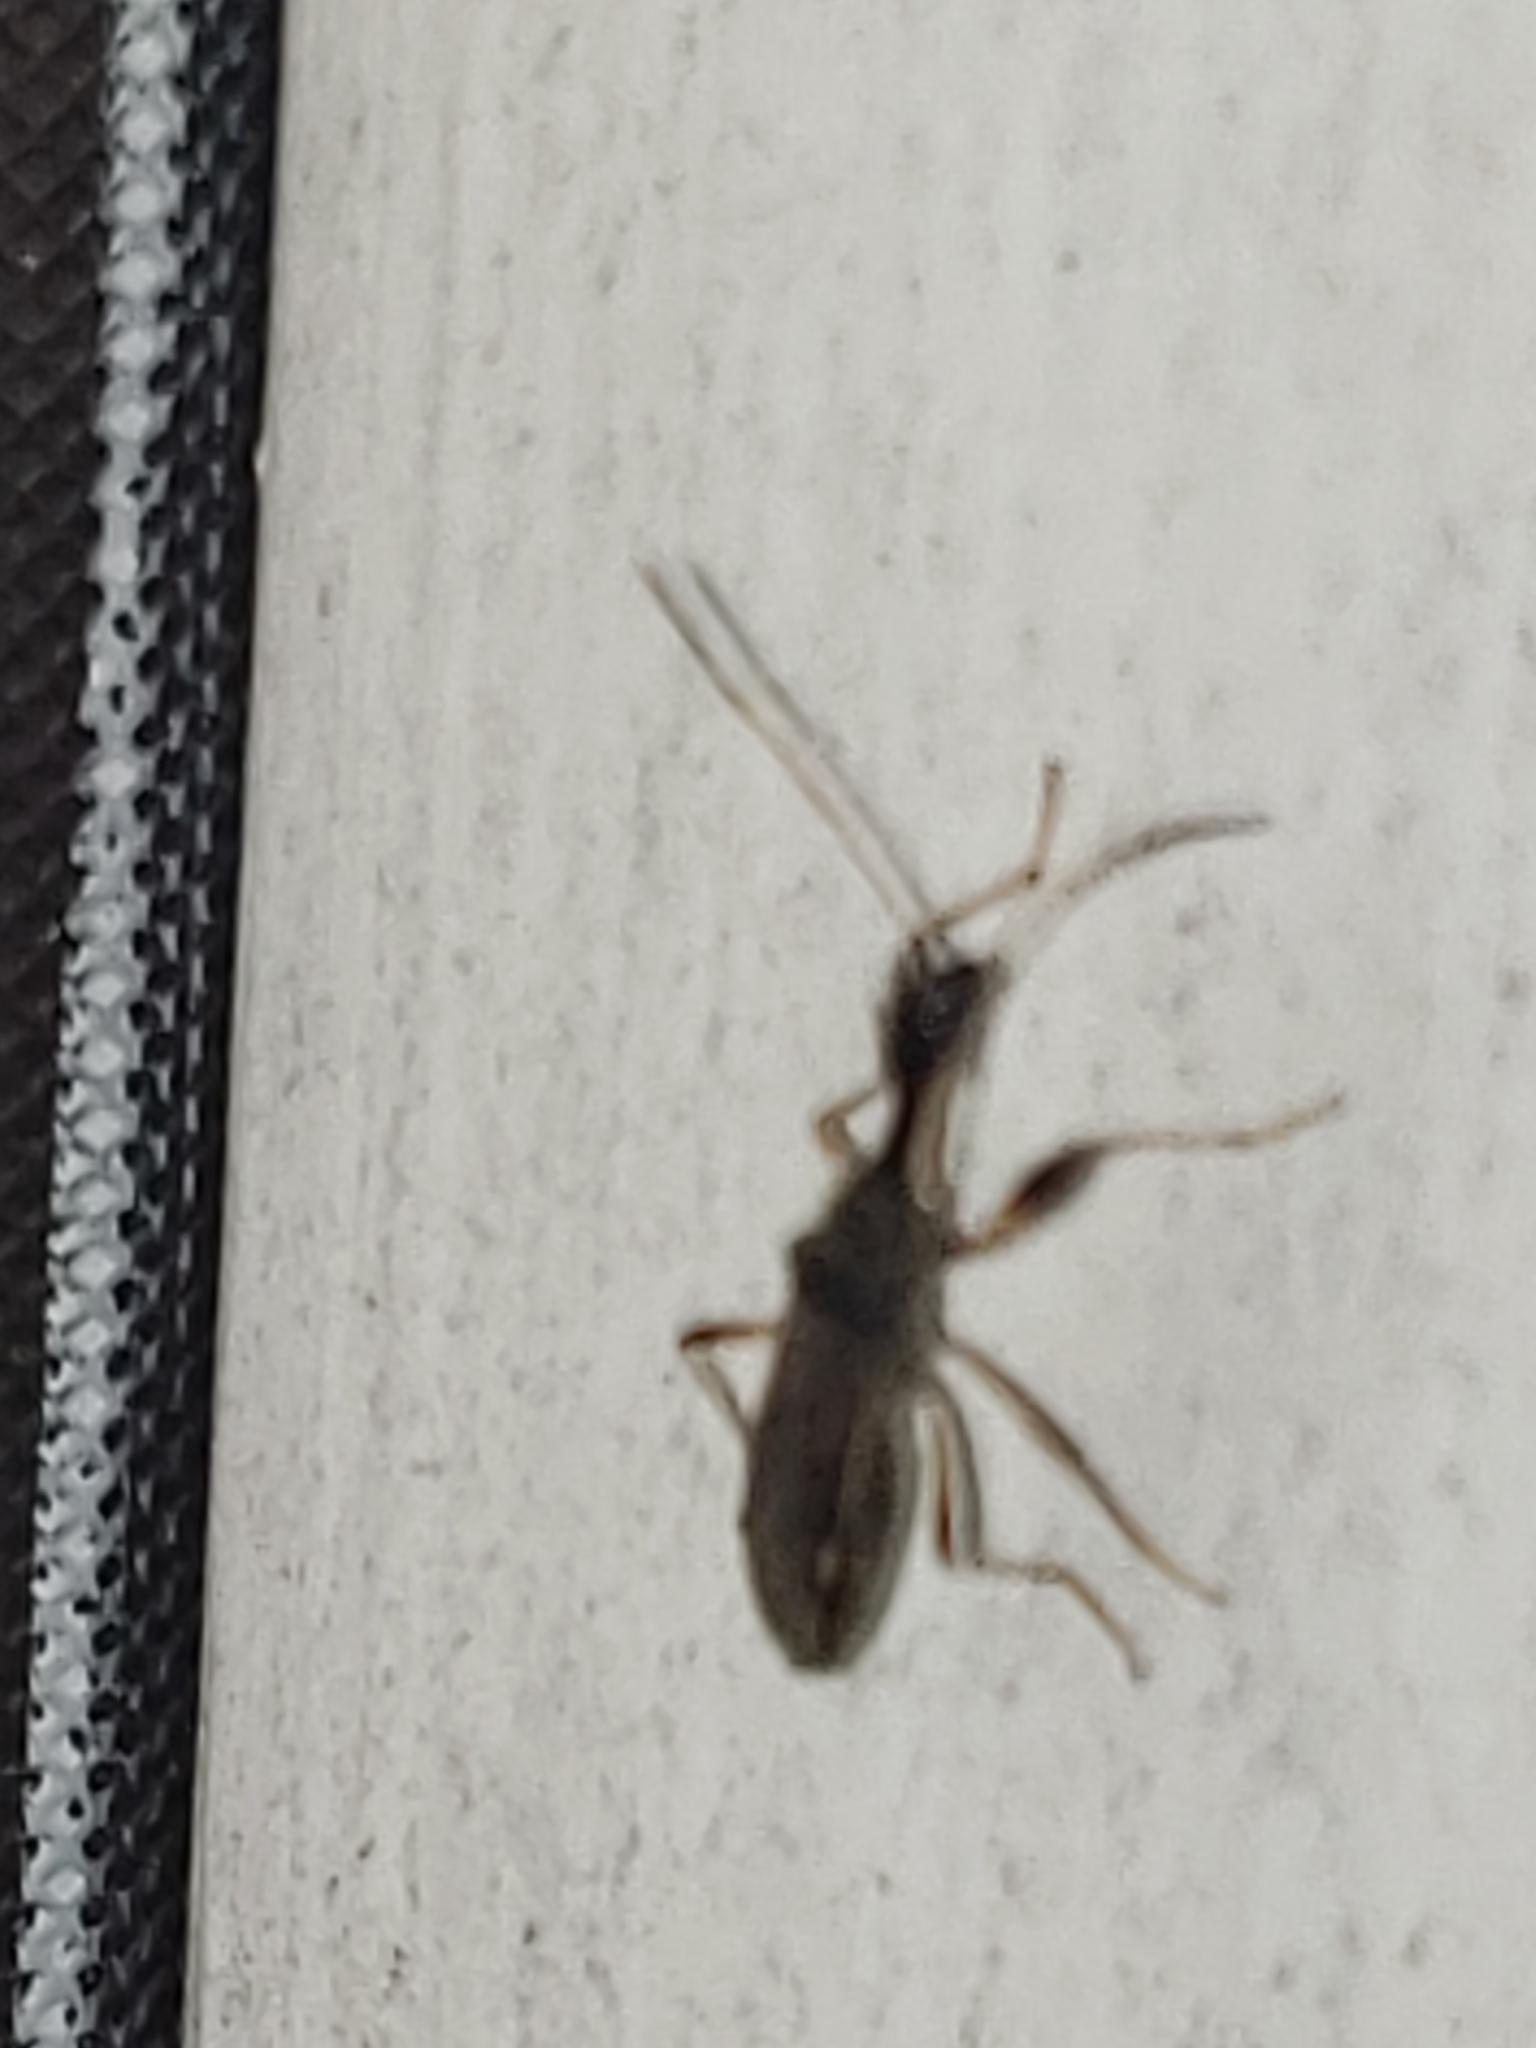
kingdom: Animalia
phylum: Arthropoda
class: Insecta
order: Hemiptera
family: Rhyparochromidae
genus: Myodocha
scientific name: Myodocha serripes
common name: Long-necked seed bug
